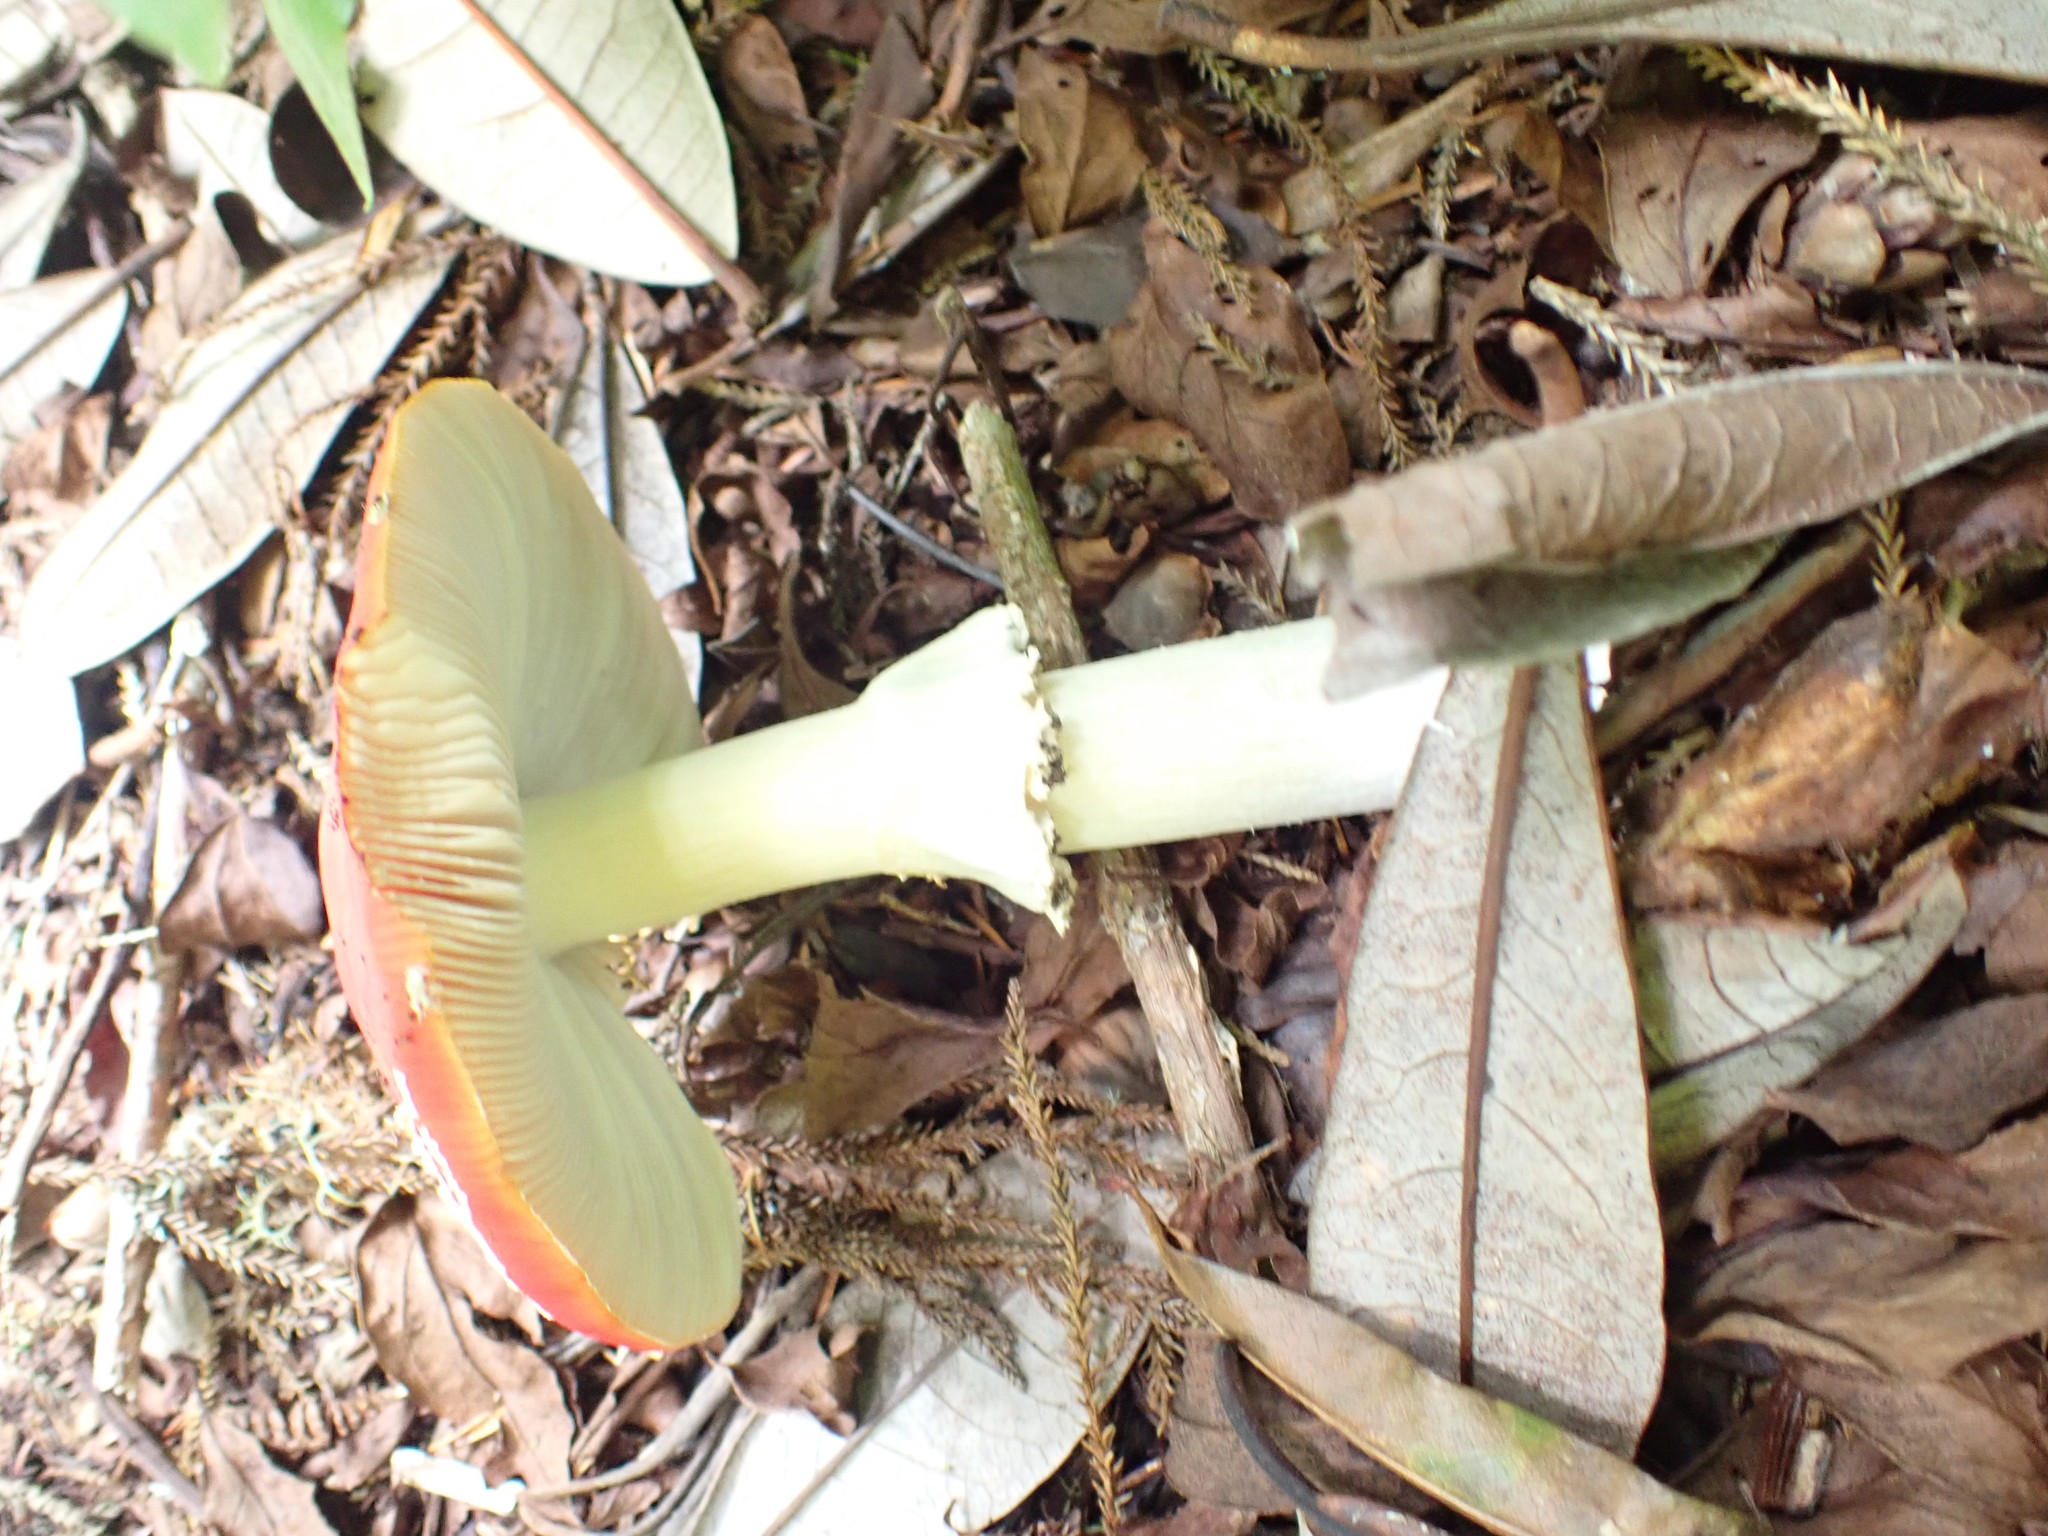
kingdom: Fungi
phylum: Basidiomycota
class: Agaricomycetes
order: Agaricales
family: Amanitaceae
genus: Amanita
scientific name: Amanita muscaria
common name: Fly agaric
